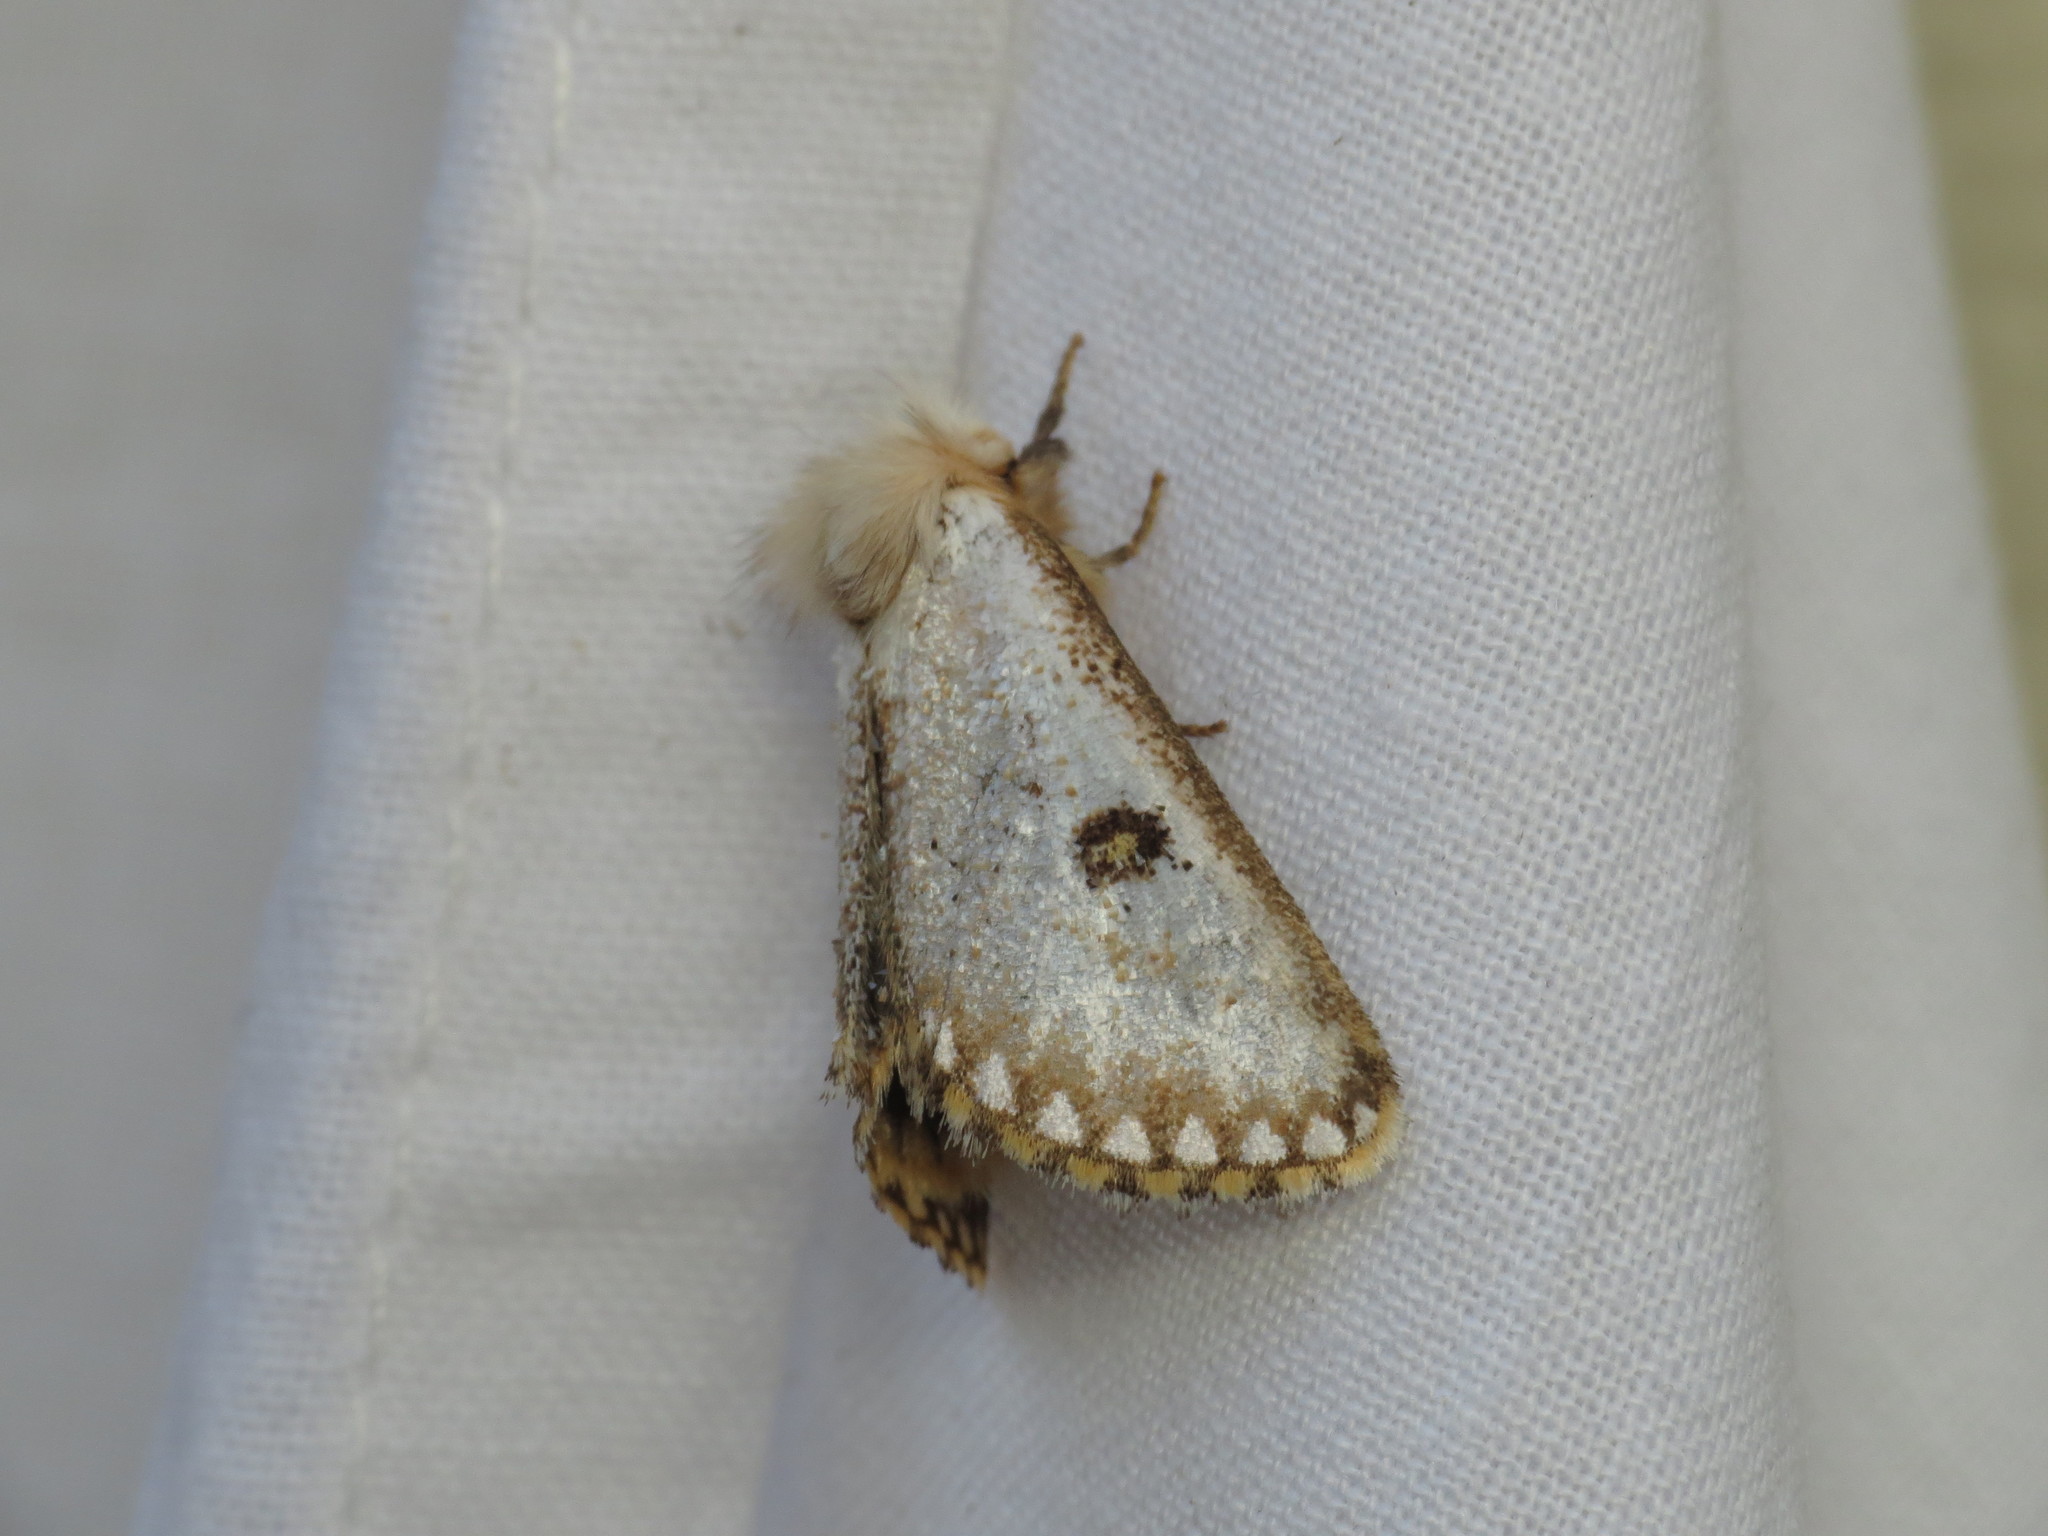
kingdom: Animalia
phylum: Arthropoda
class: Insecta
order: Lepidoptera
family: Notodontidae
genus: Epicoma
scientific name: Epicoma melanosticta
